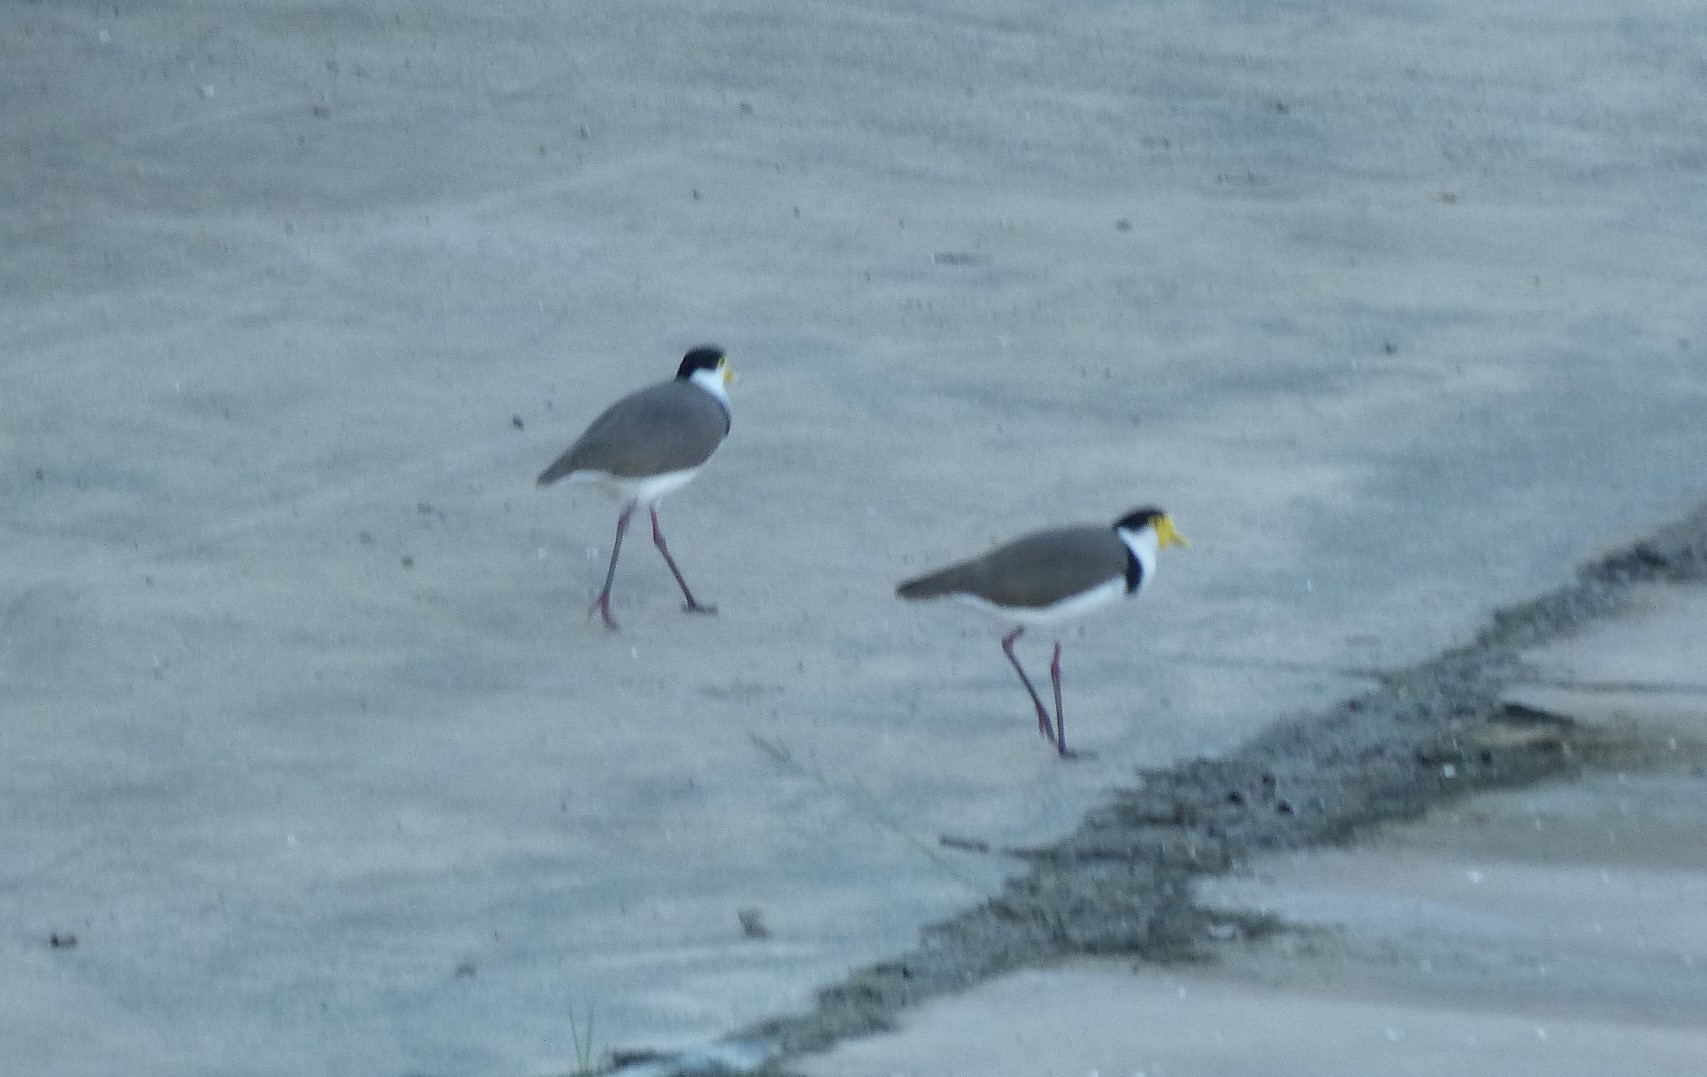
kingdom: Animalia
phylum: Chordata
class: Aves
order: Charadriiformes
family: Charadriidae
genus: Vanellus
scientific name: Vanellus miles
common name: Masked lapwing
